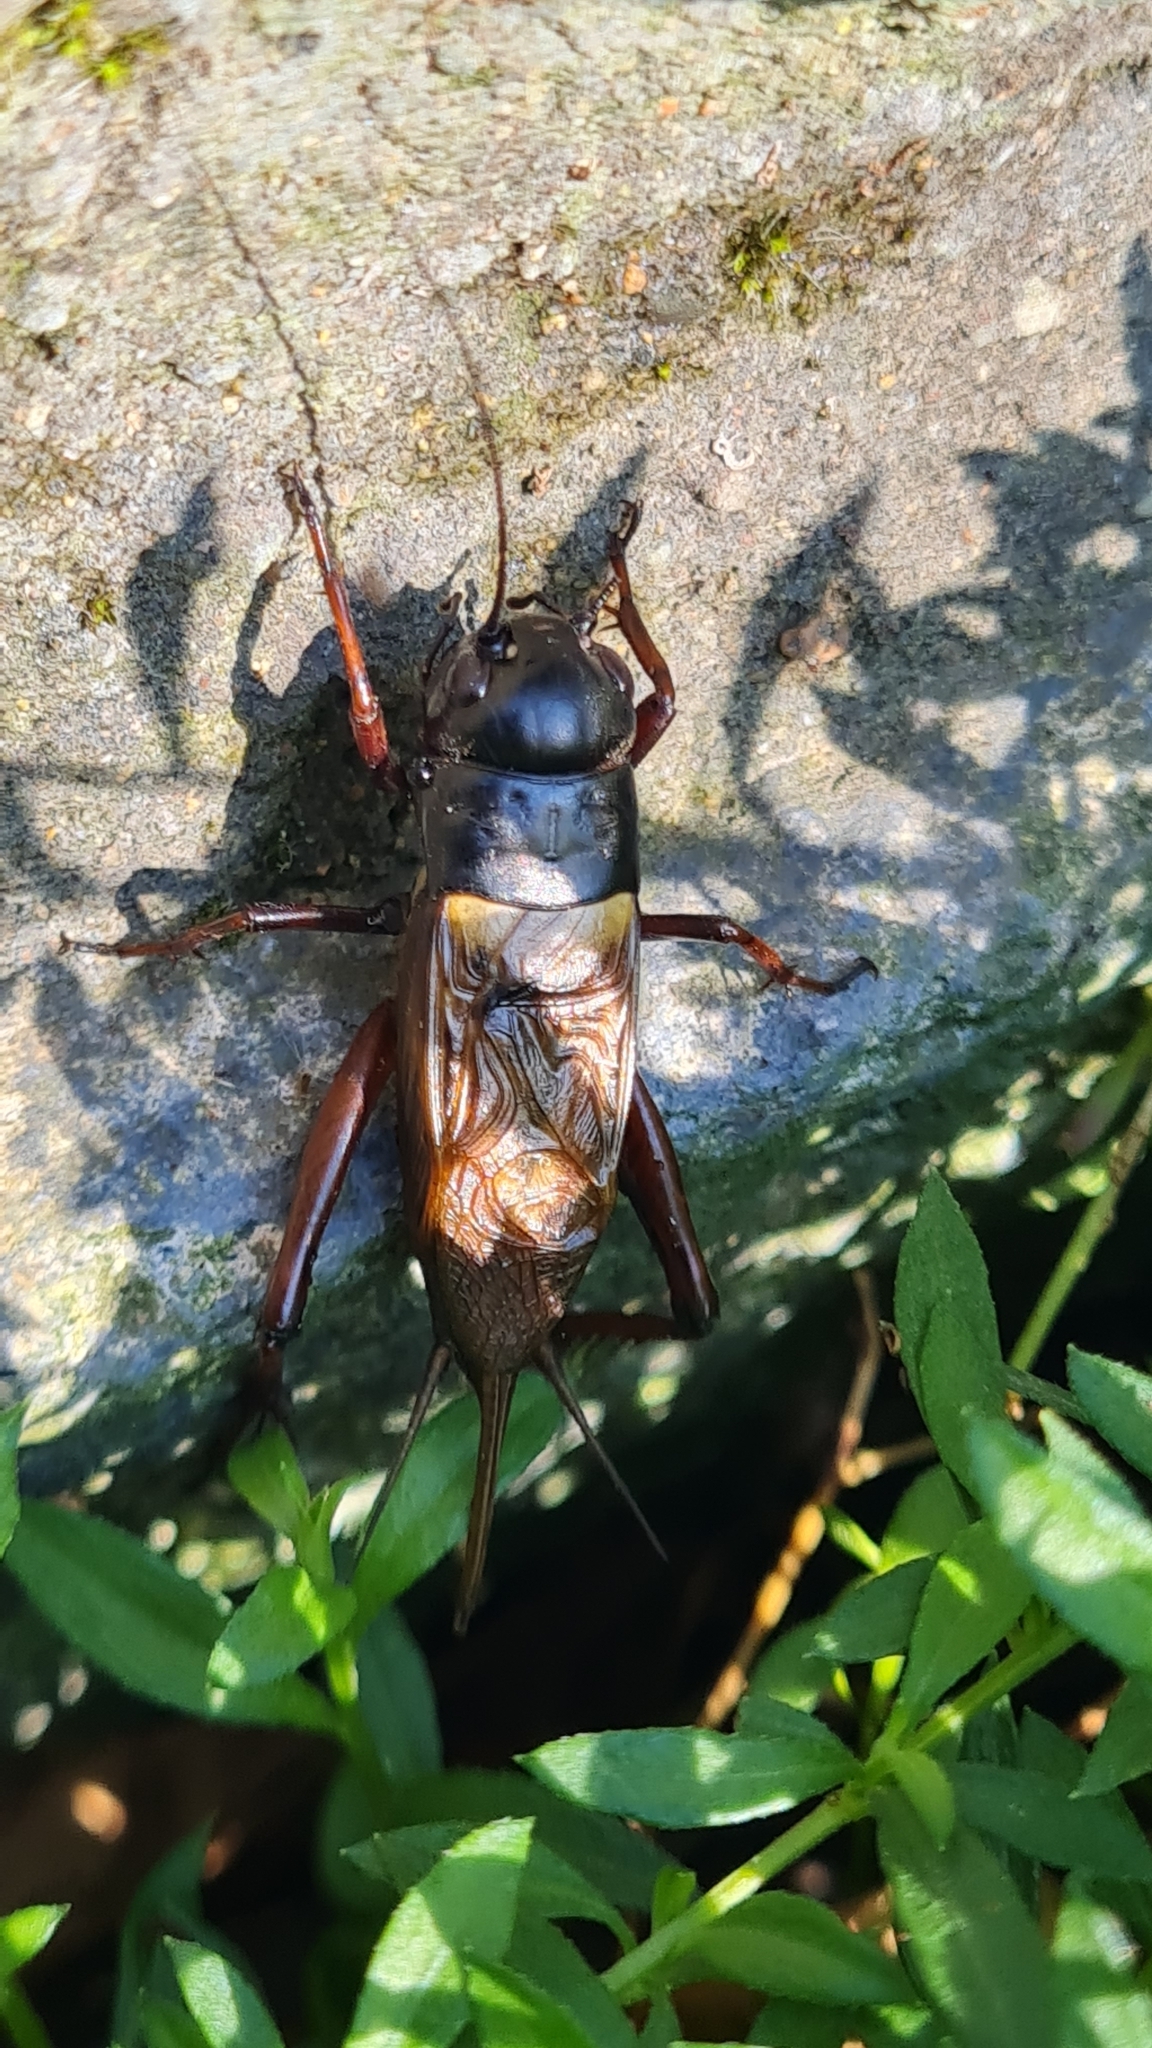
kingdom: Animalia
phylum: Arthropoda
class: Insecta
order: Orthoptera
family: Gryllidae
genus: Gryllus
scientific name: Gryllus bimaculatus
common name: Two-spotted cricket
